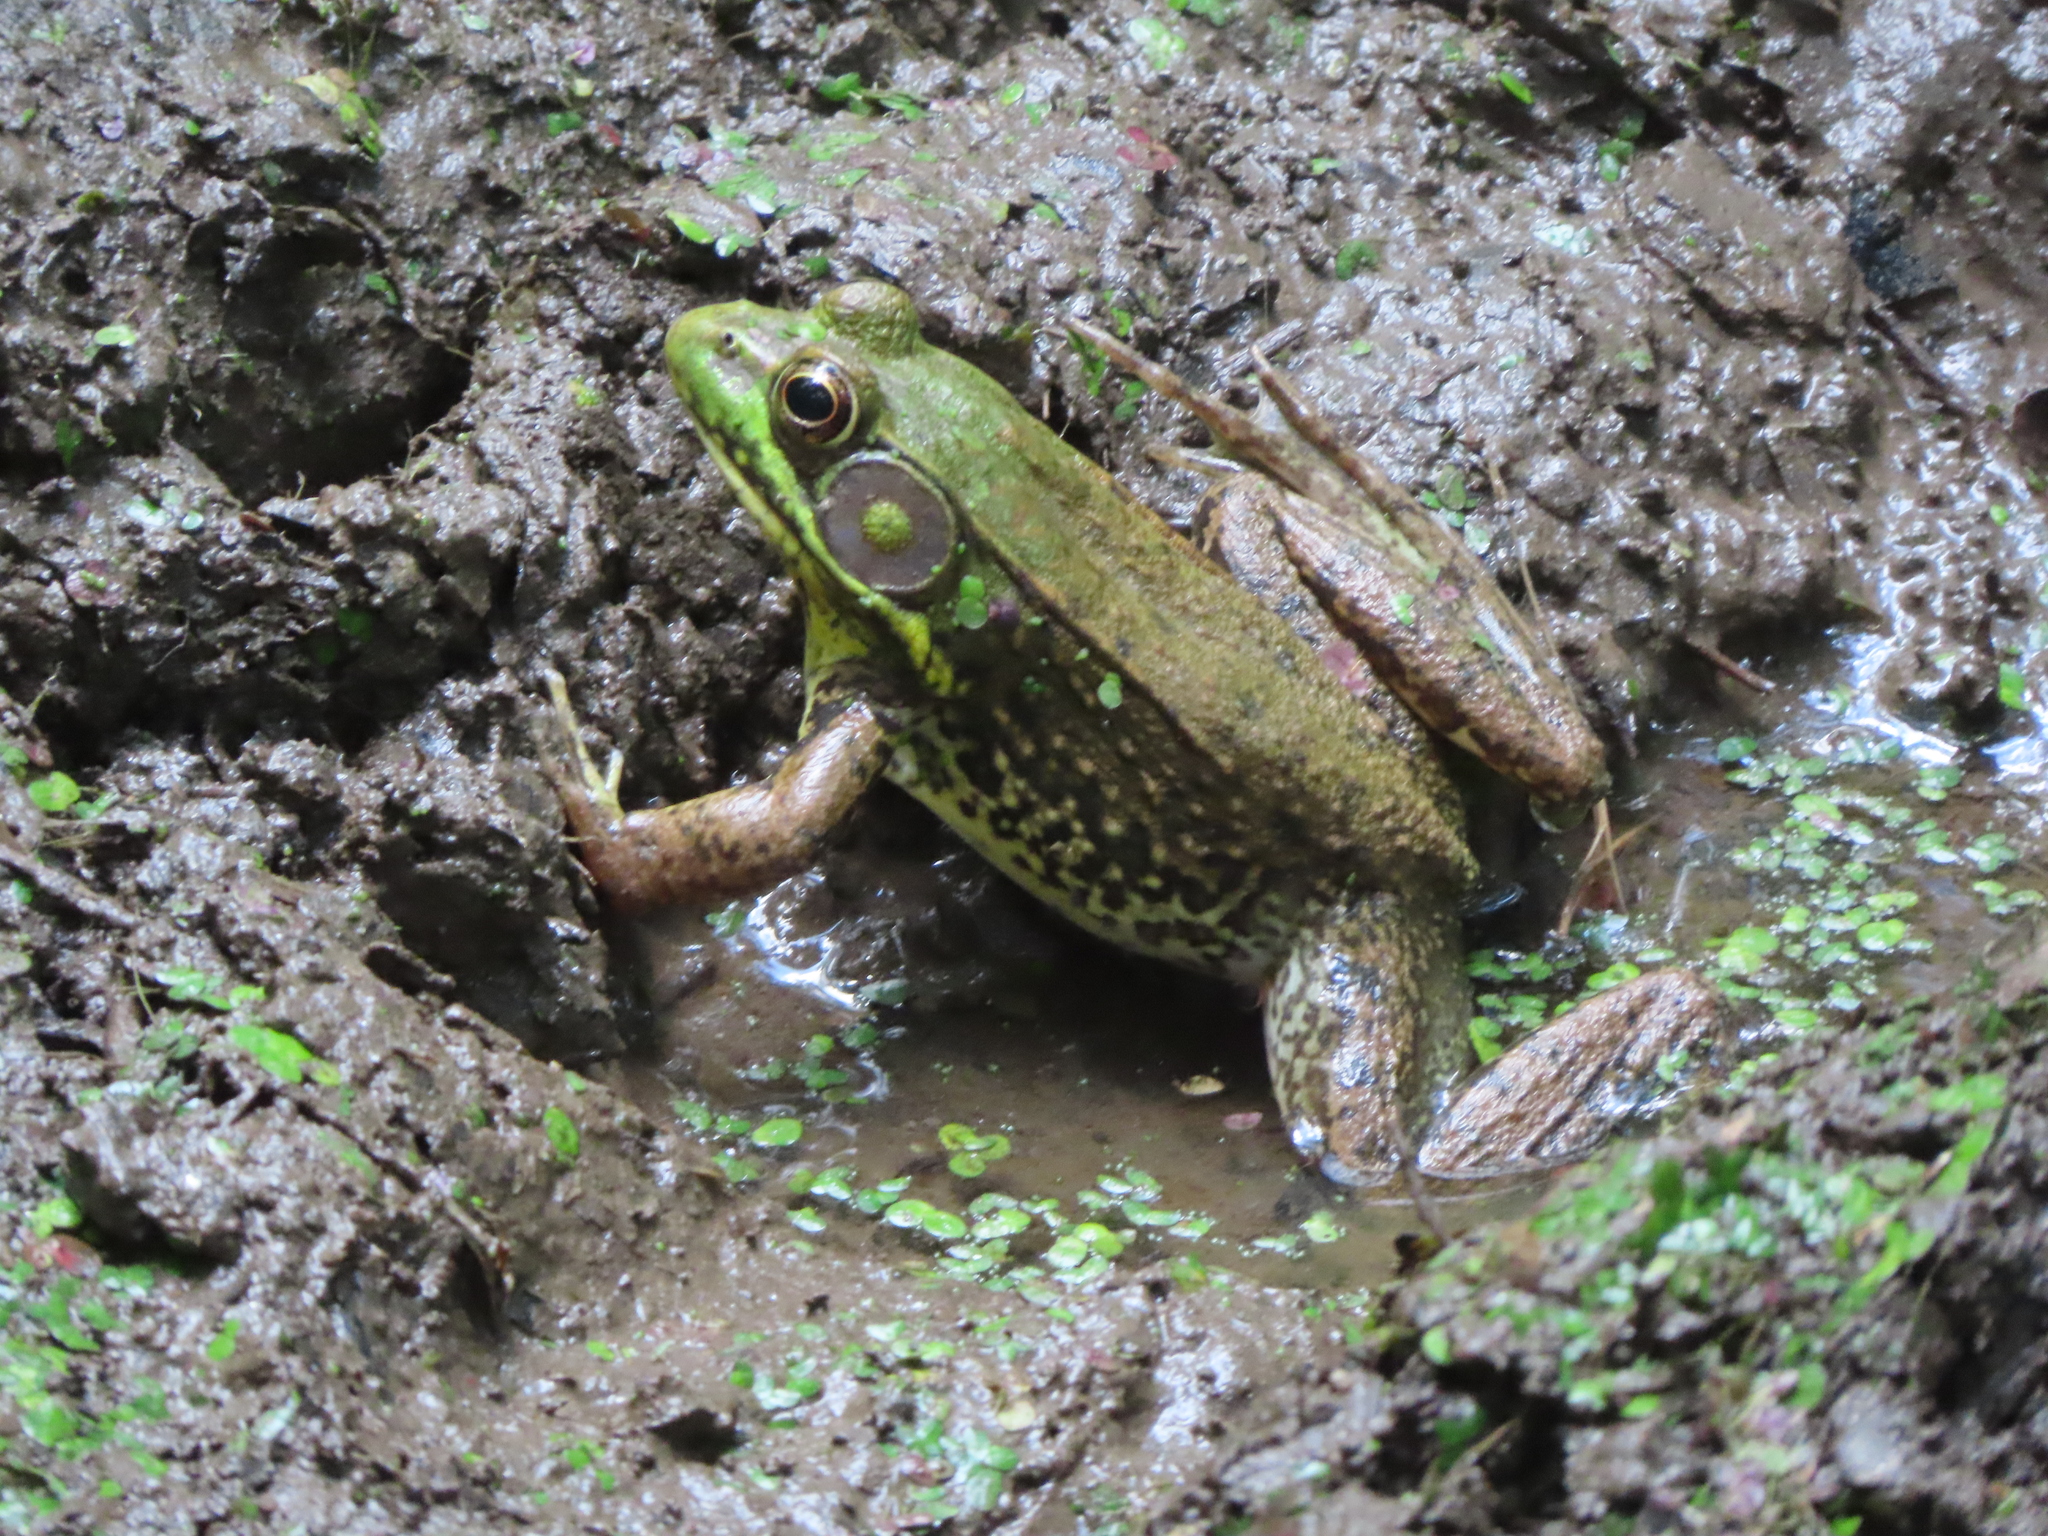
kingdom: Animalia
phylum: Chordata
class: Amphibia
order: Anura
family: Ranidae
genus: Lithobates
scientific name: Lithobates clamitans
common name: Green frog
